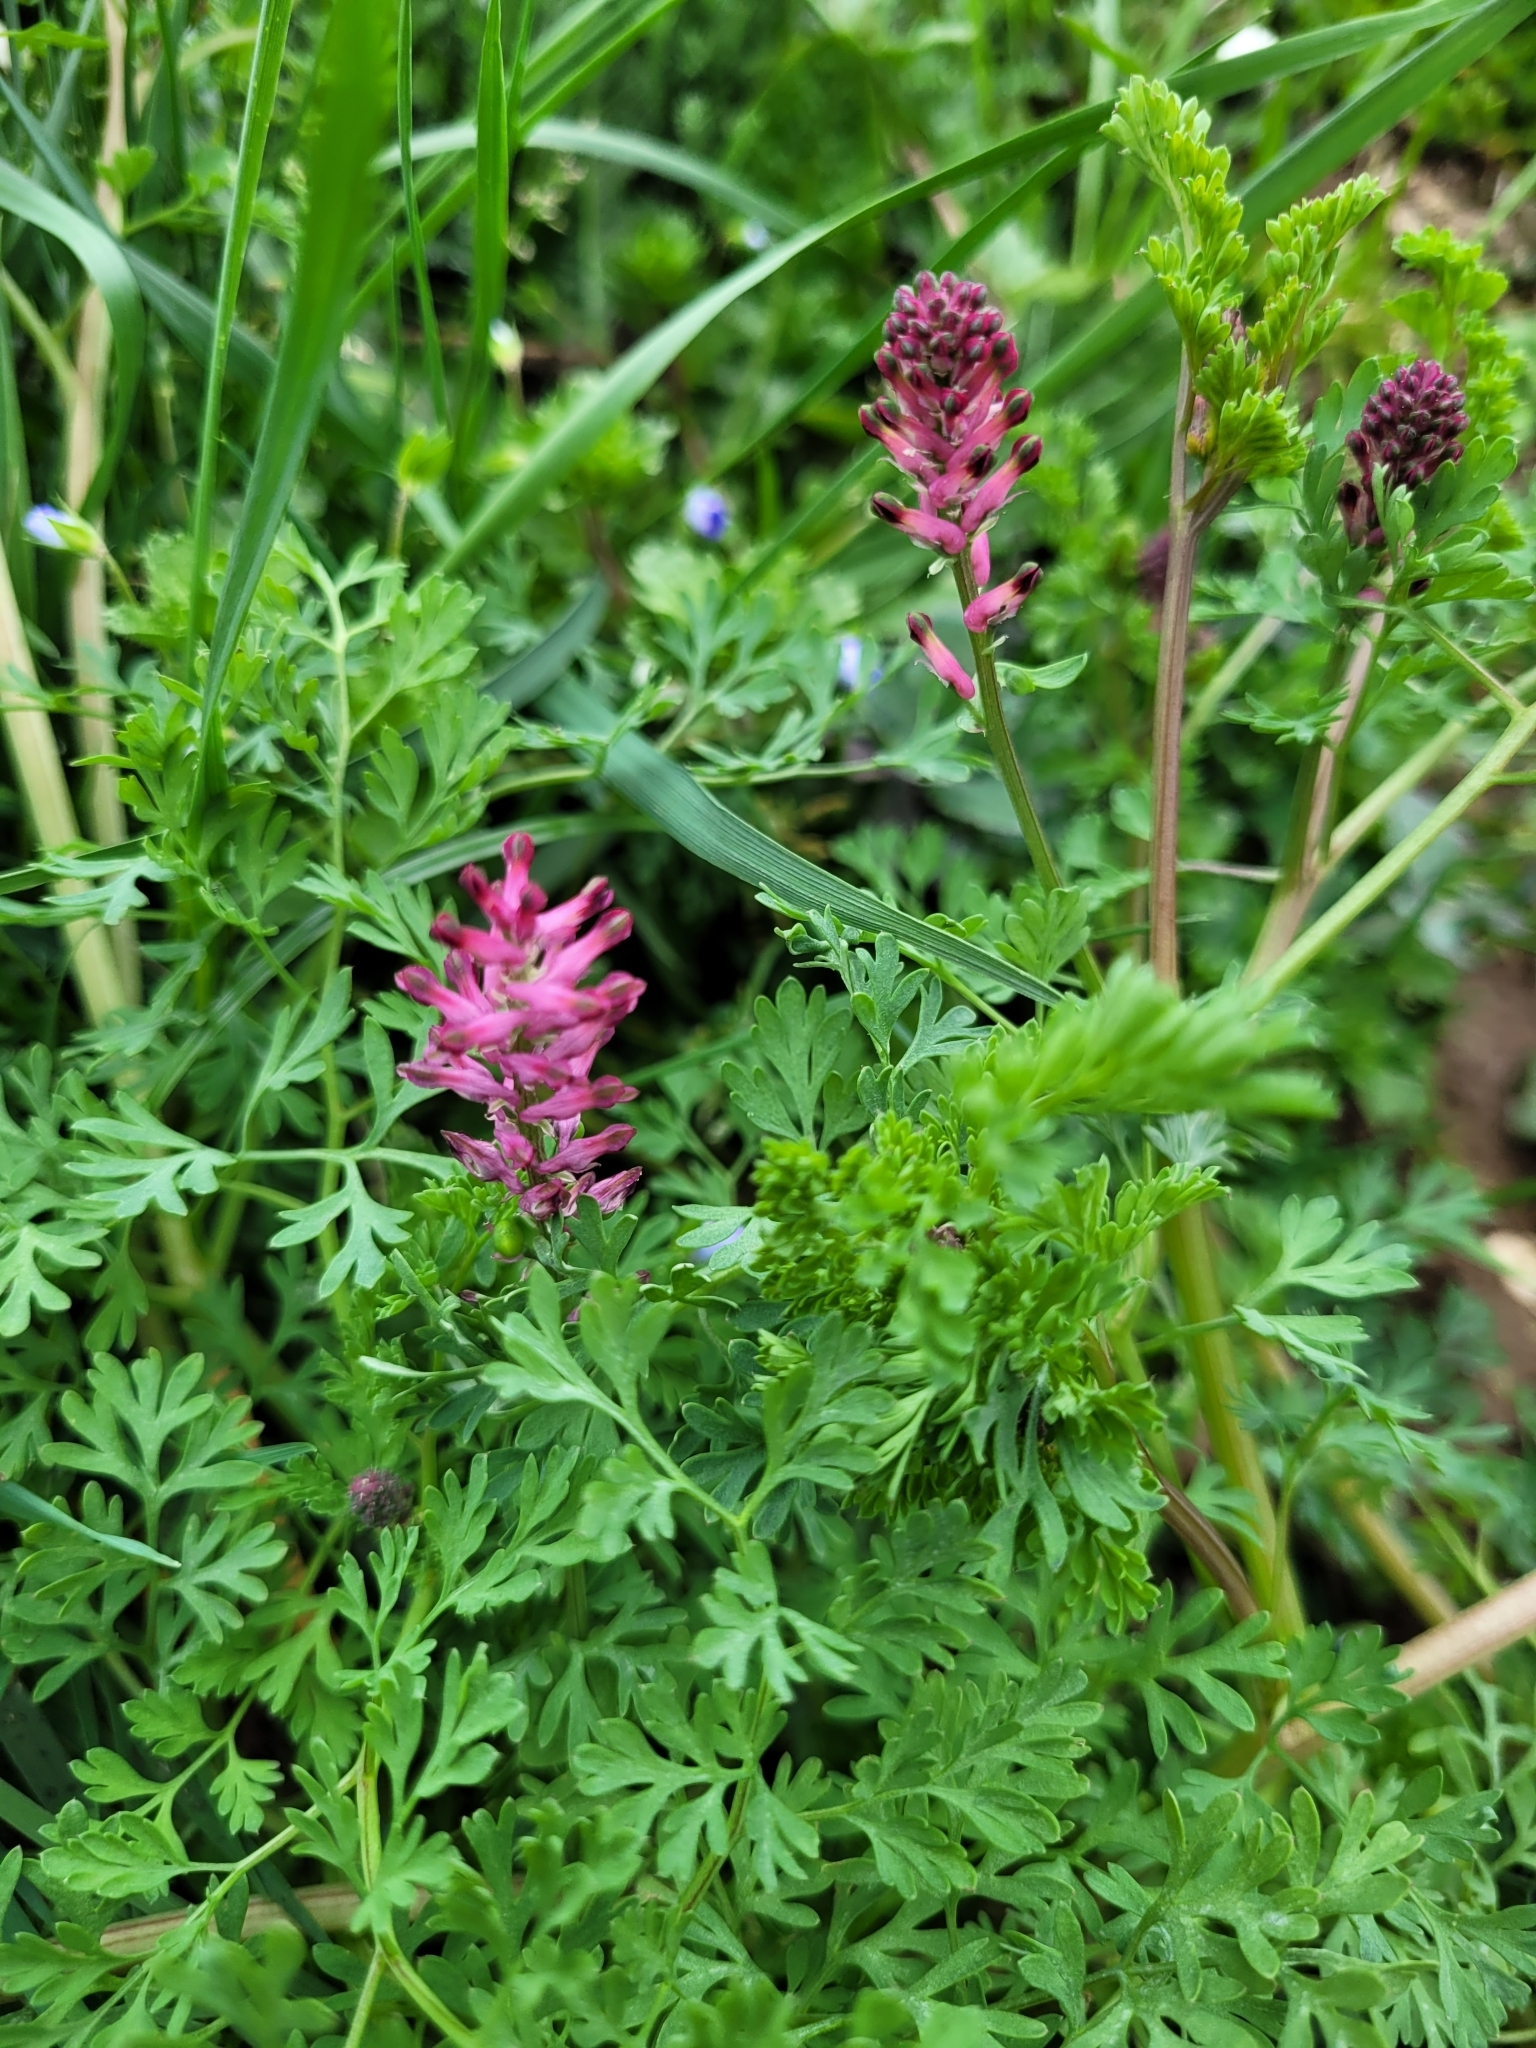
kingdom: Plantae
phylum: Tracheophyta
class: Magnoliopsida
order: Ranunculales
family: Papaveraceae
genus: Fumaria
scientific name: Fumaria officinalis
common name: Common fumitory
